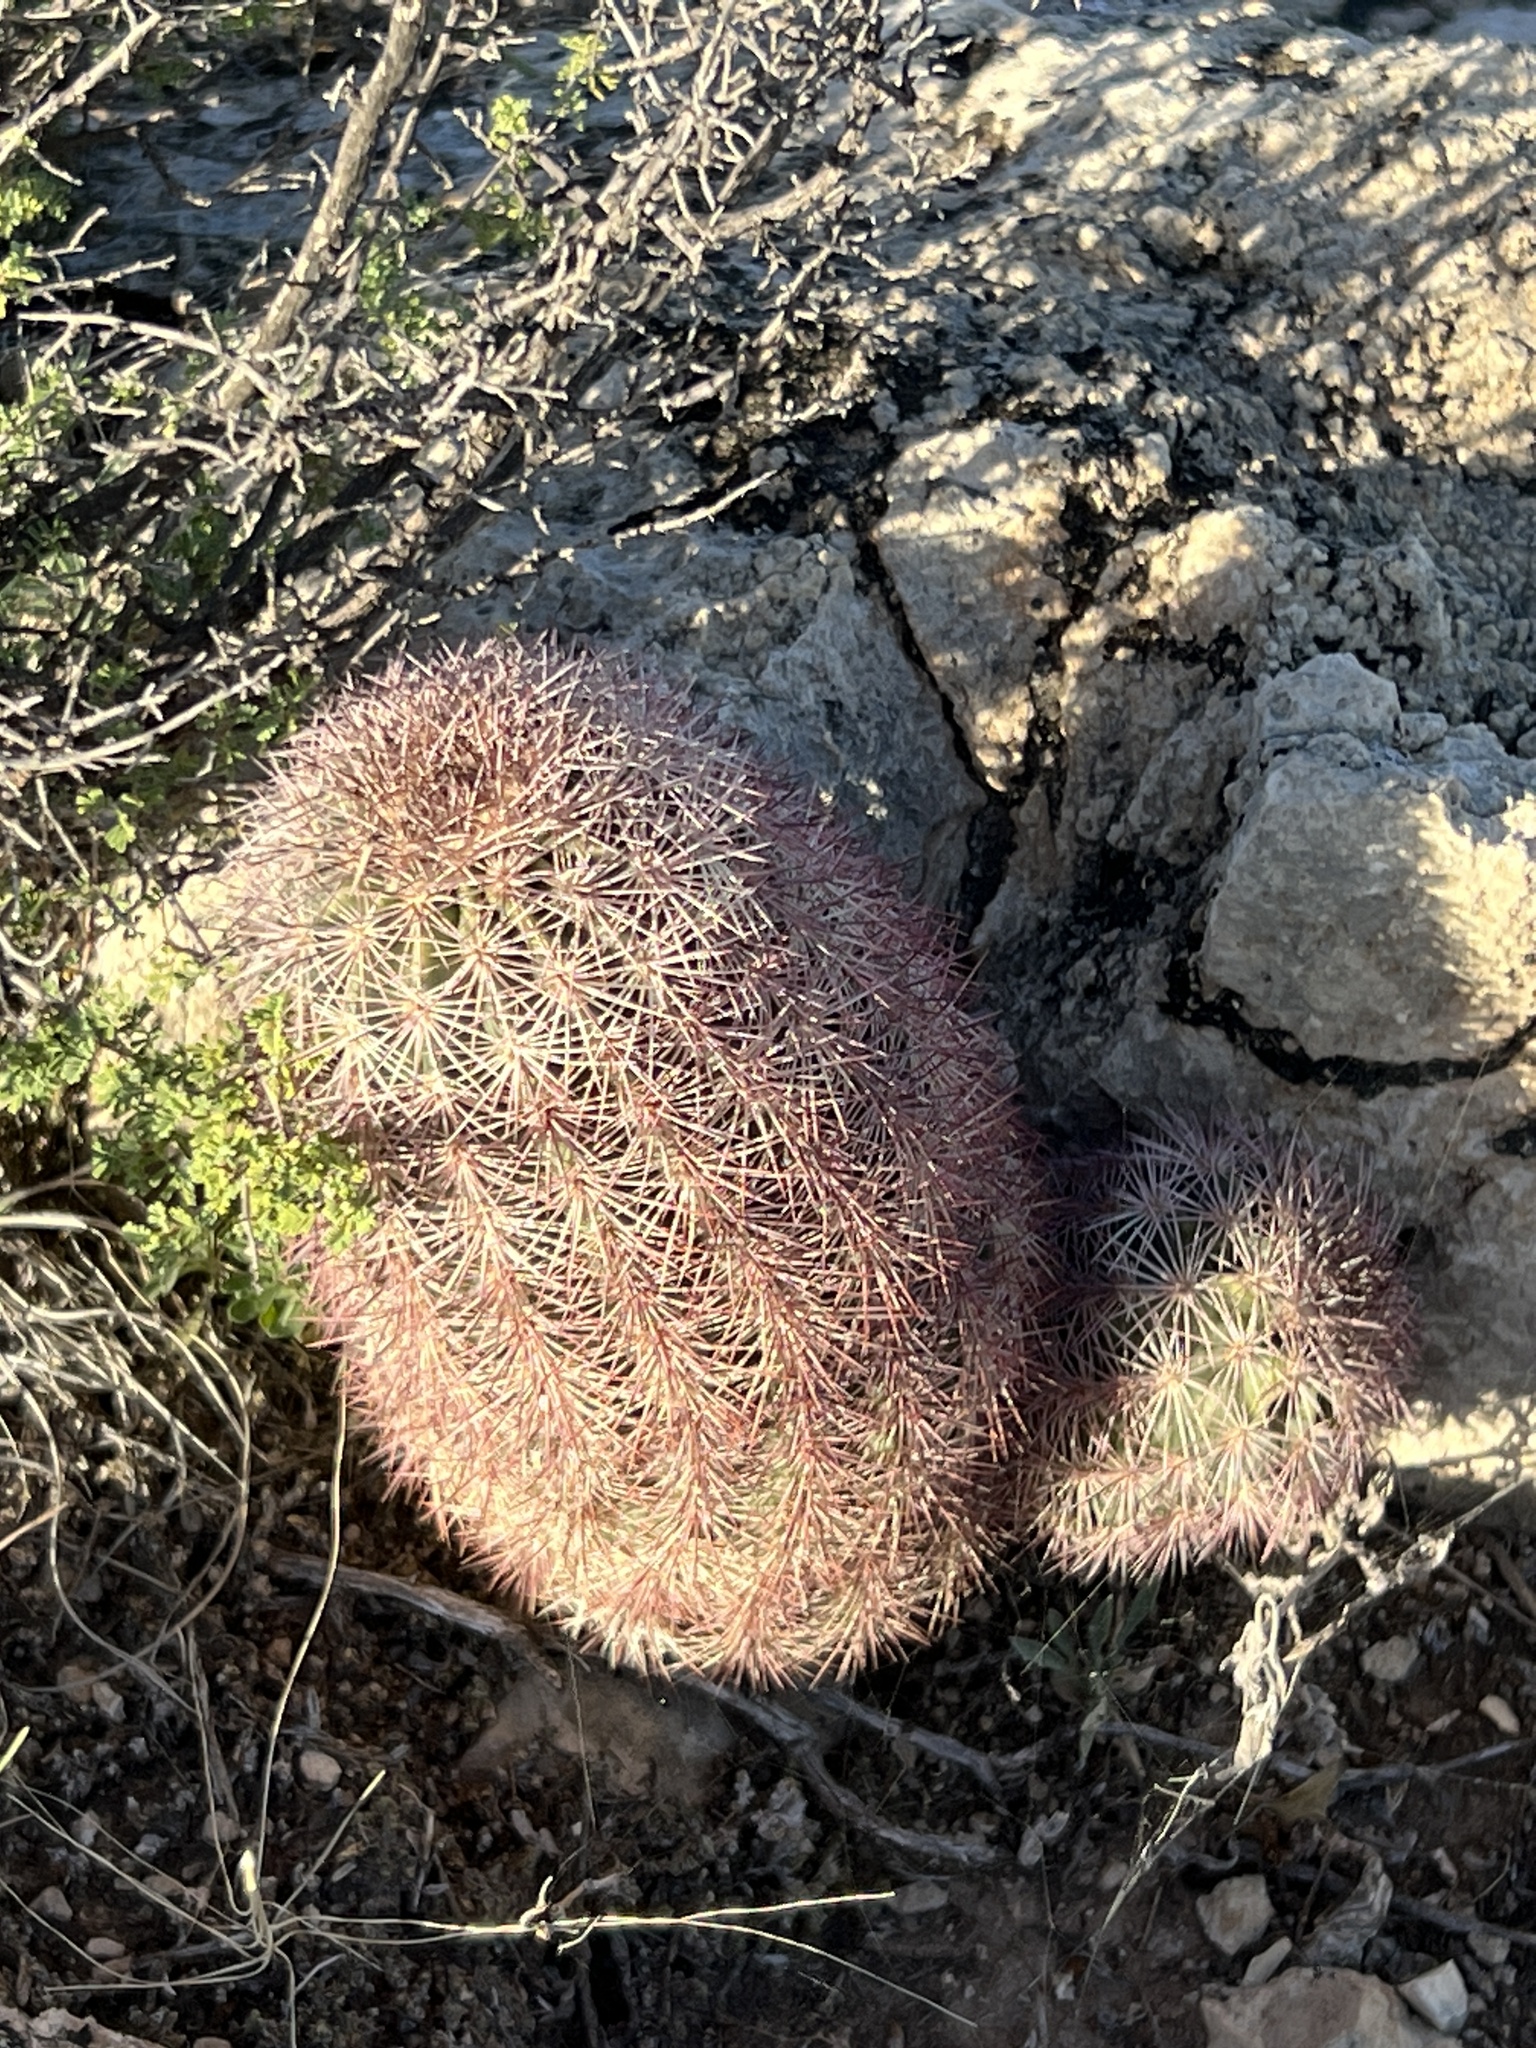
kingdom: Plantae
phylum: Tracheophyta
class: Magnoliopsida
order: Caryophyllales
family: Cactaceae
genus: Echinocereus
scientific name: Echinocereus dasyacanthus
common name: Spiny hedgehog cactus
